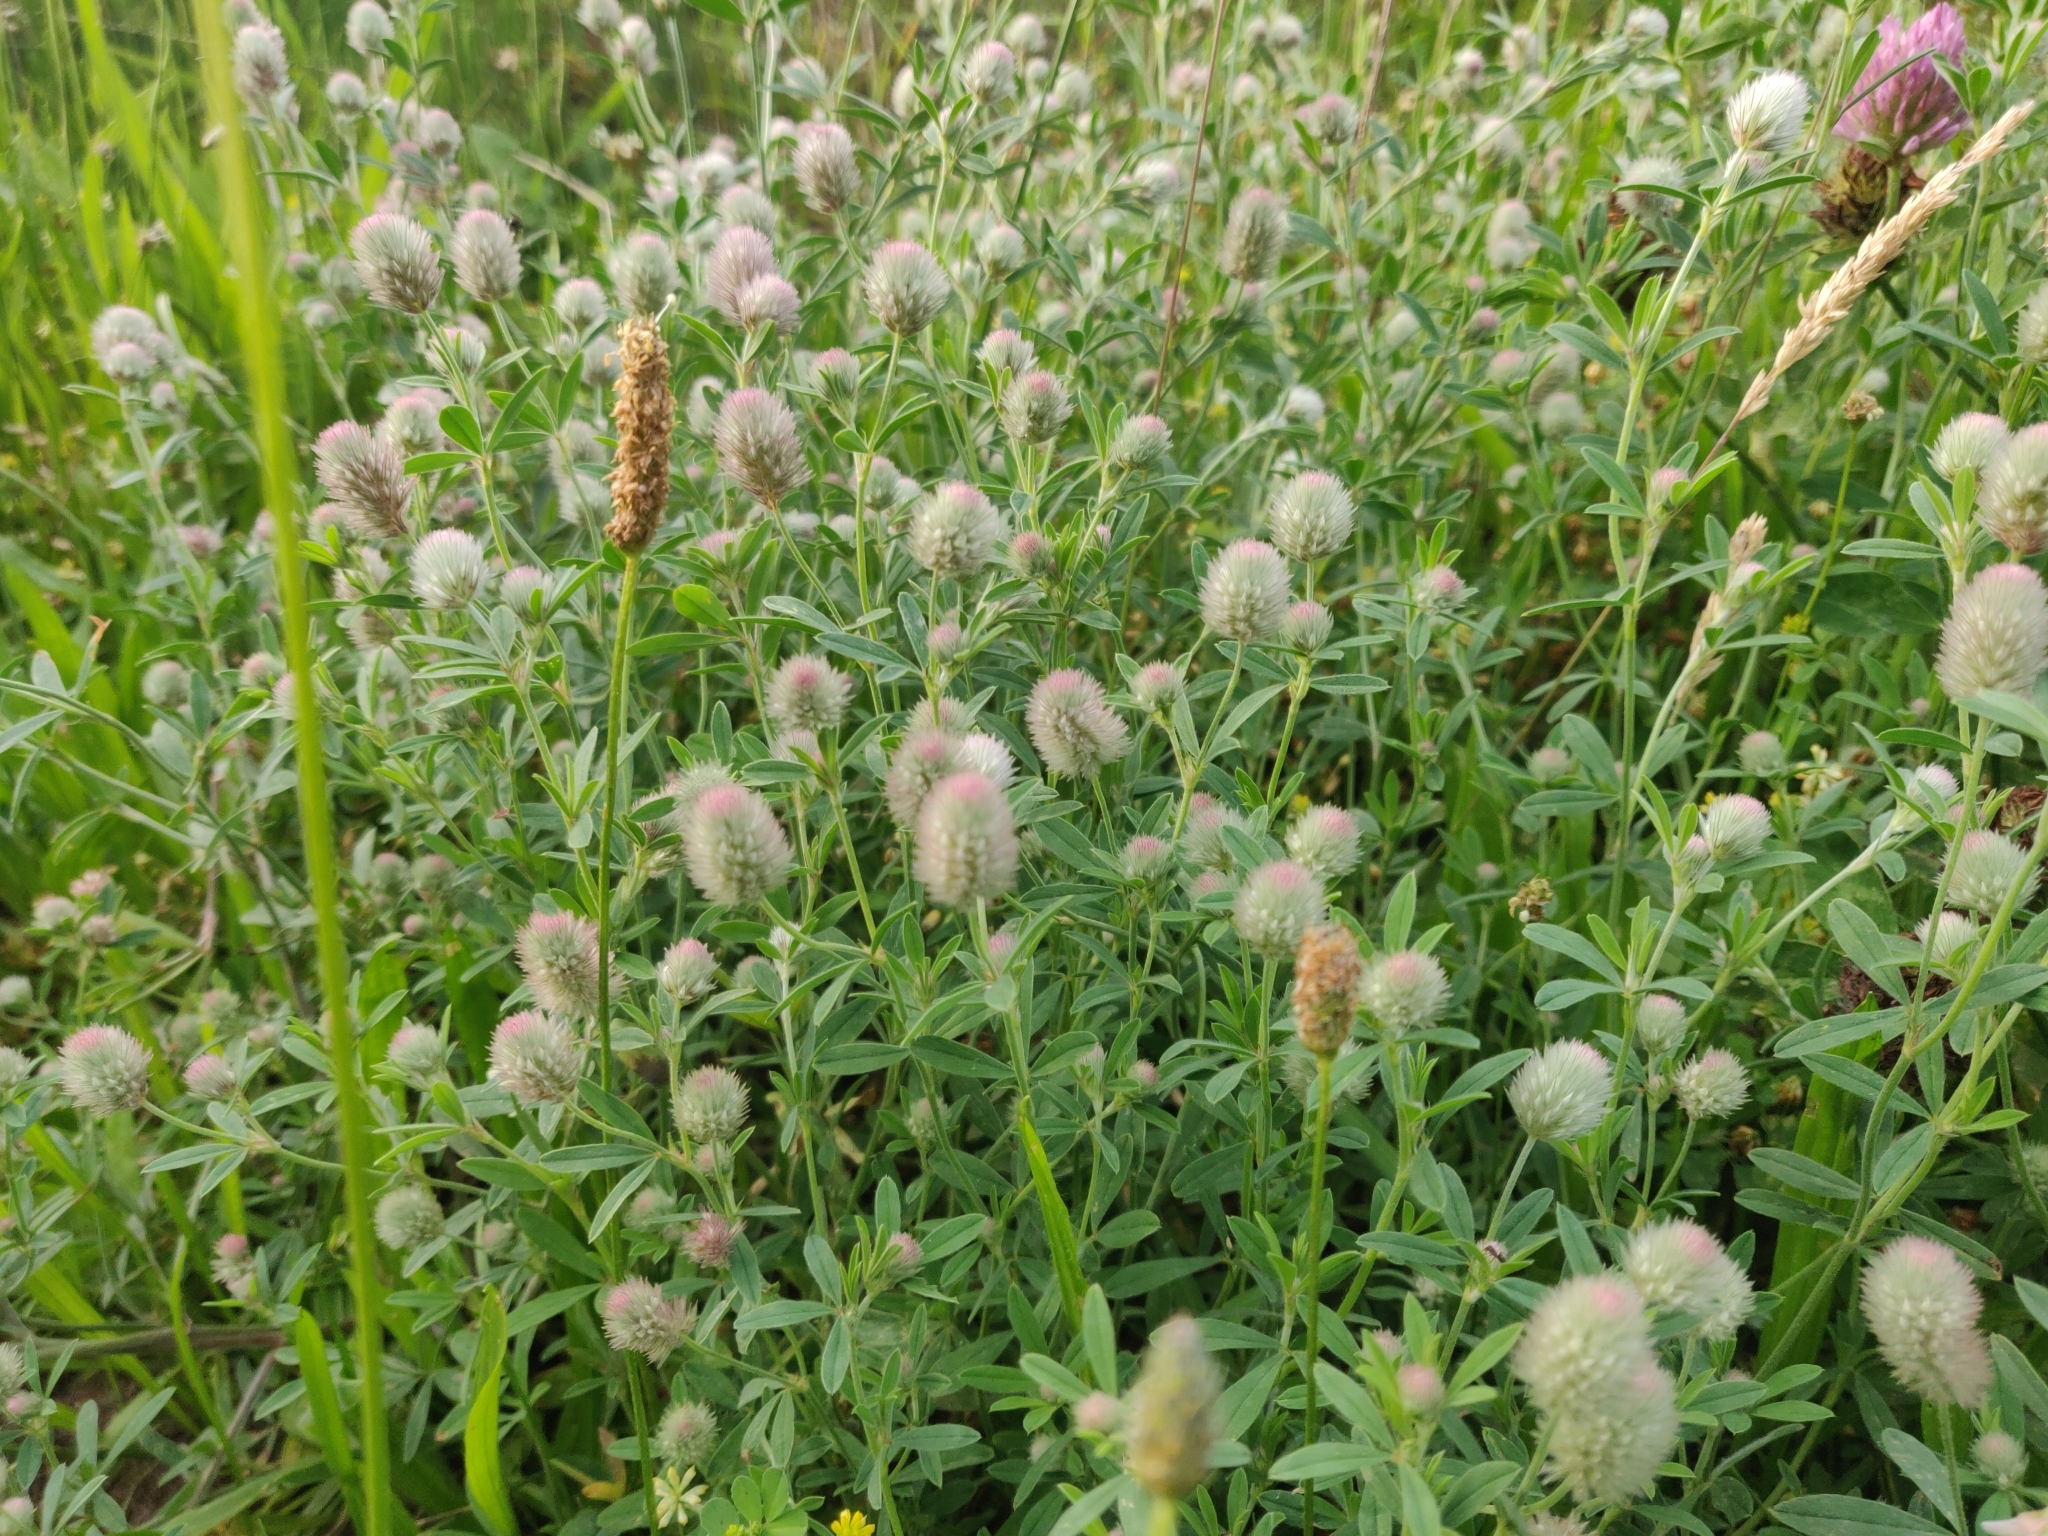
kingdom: Plantae
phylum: Tracheophyta
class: Magnoliopsida
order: Fabales
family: Fabaceae
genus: Trifolium
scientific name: Trifolium arvense
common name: Hare's-foot clover
